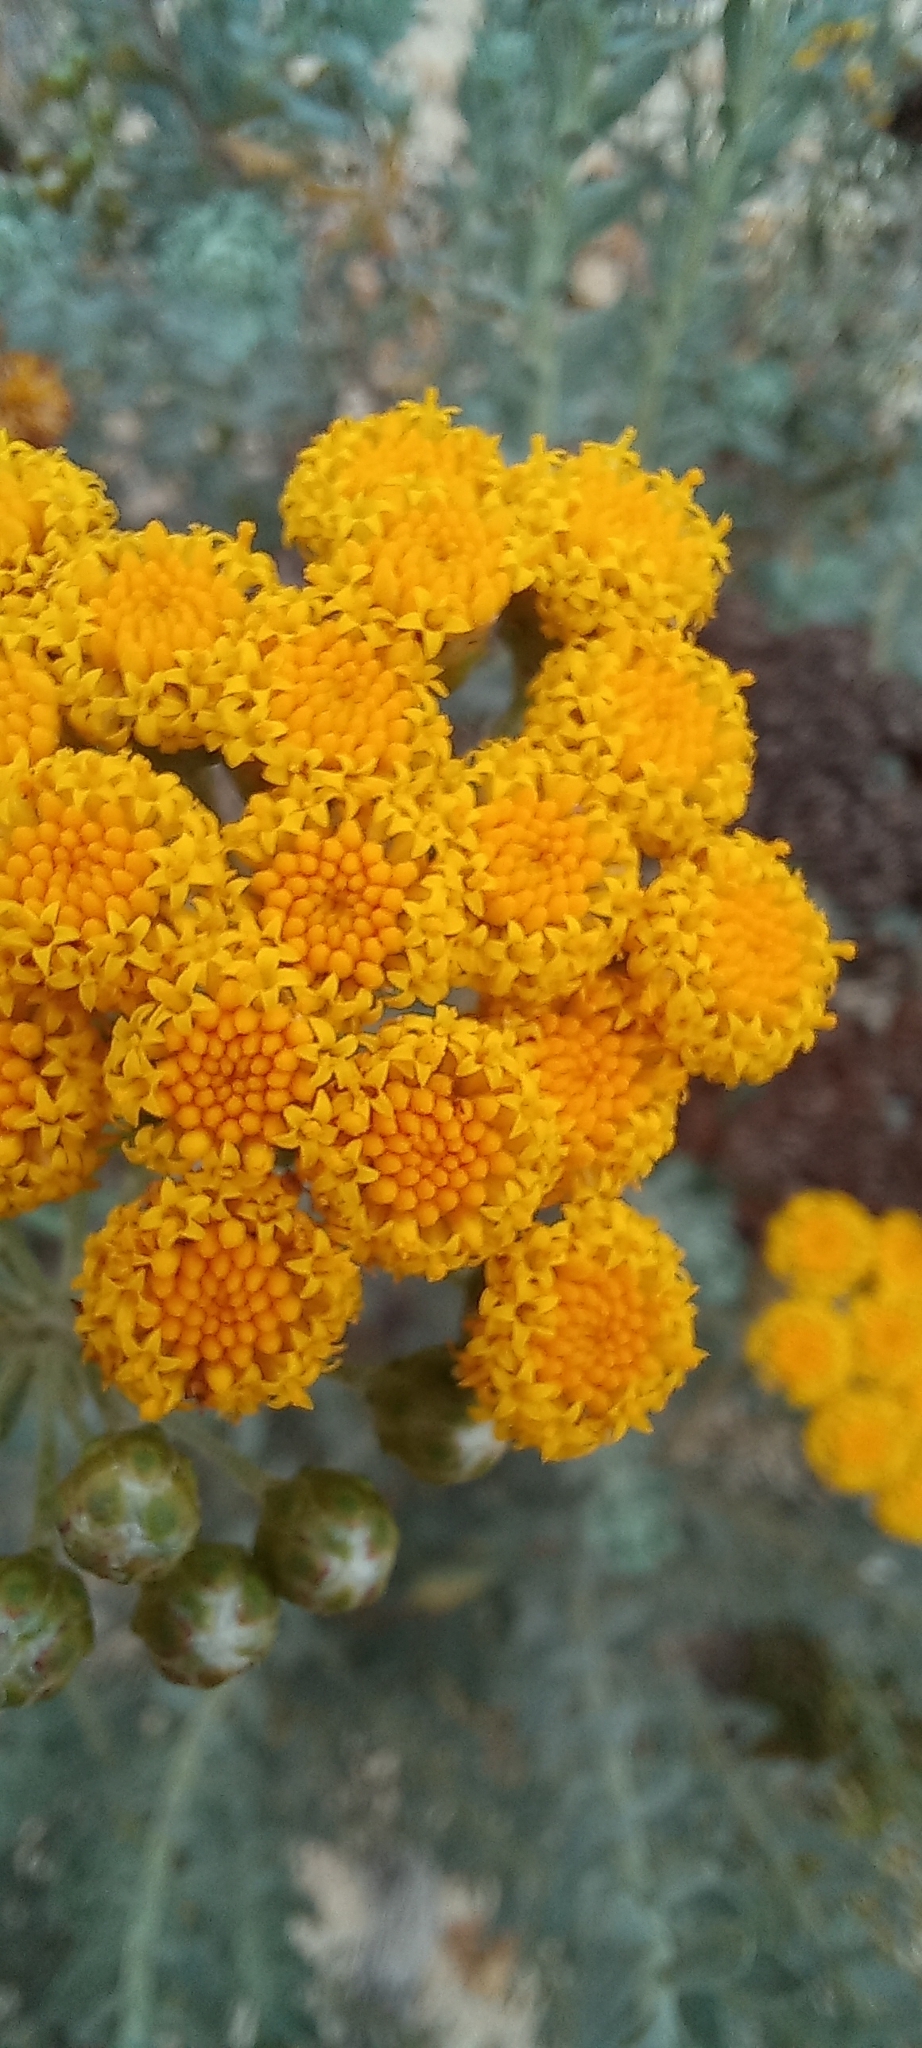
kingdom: Plantae
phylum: Tracheophyta
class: Magnoliopsida
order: Asterales
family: Asteraceae
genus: Athanasia
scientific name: Athanasia trifurcata
